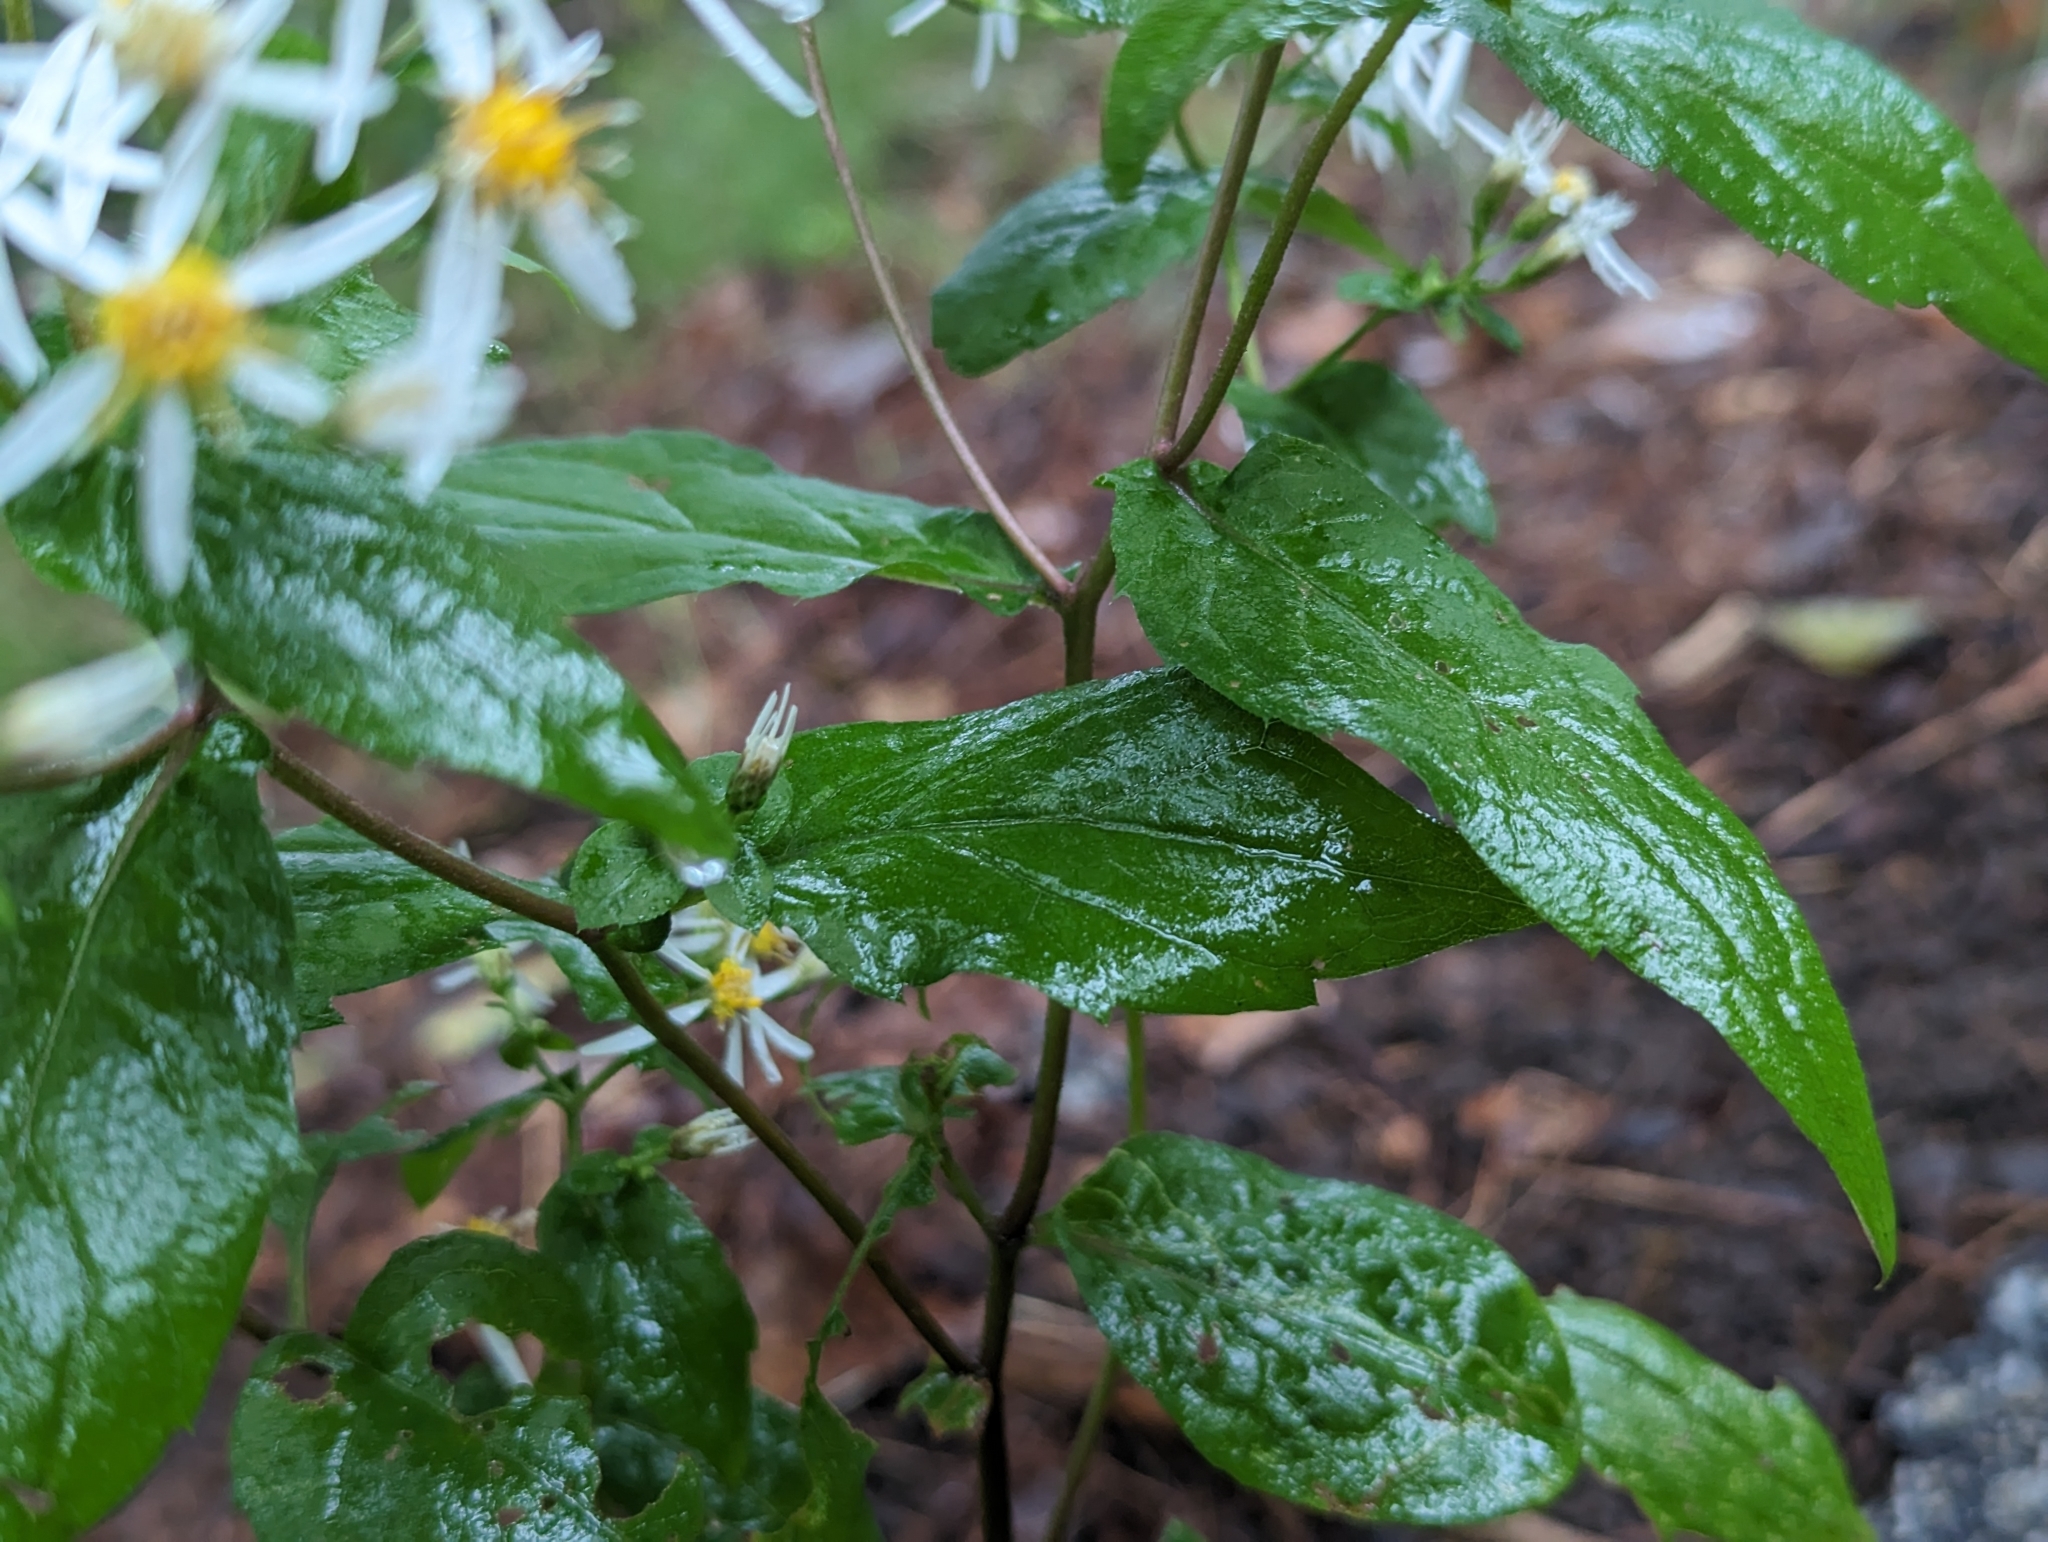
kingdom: Plantae
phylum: Tracheophyta
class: Magnoliopsida
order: Asterales
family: Asteraceae
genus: Eurybia
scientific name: Eurybia divaricata
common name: White wood aster
